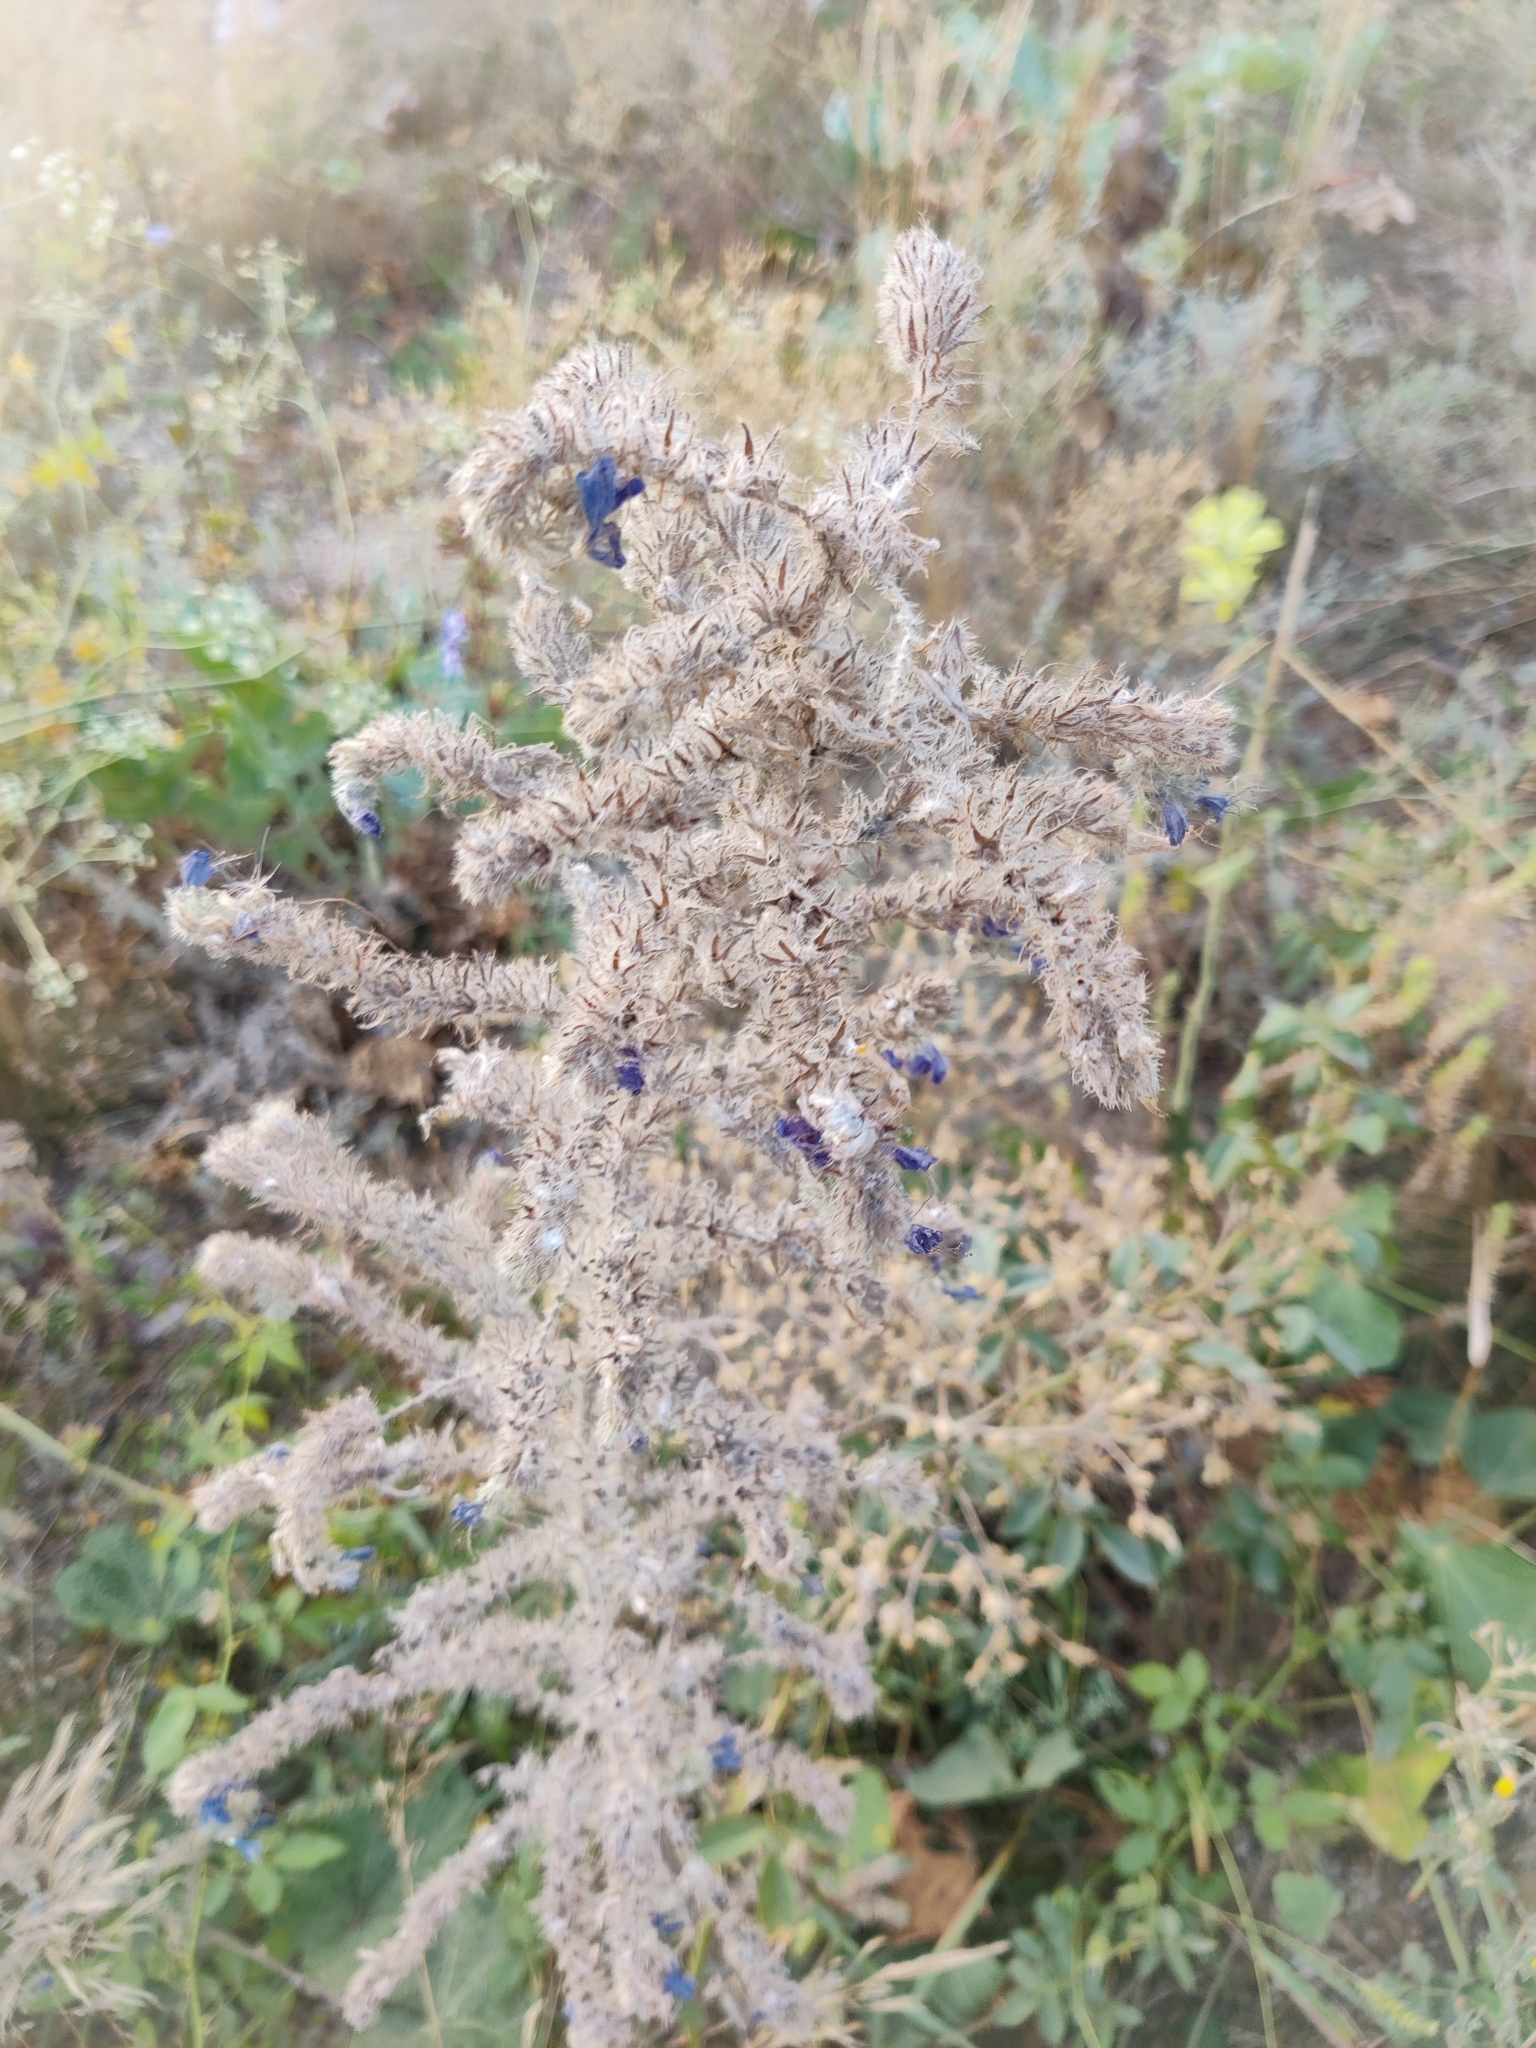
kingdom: Plantae
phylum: Tracheophyta
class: Magnoliopsida
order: Boraginales
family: Boraginaceae
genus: Echium
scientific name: Echium vulgare
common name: Common viper's bugloss
